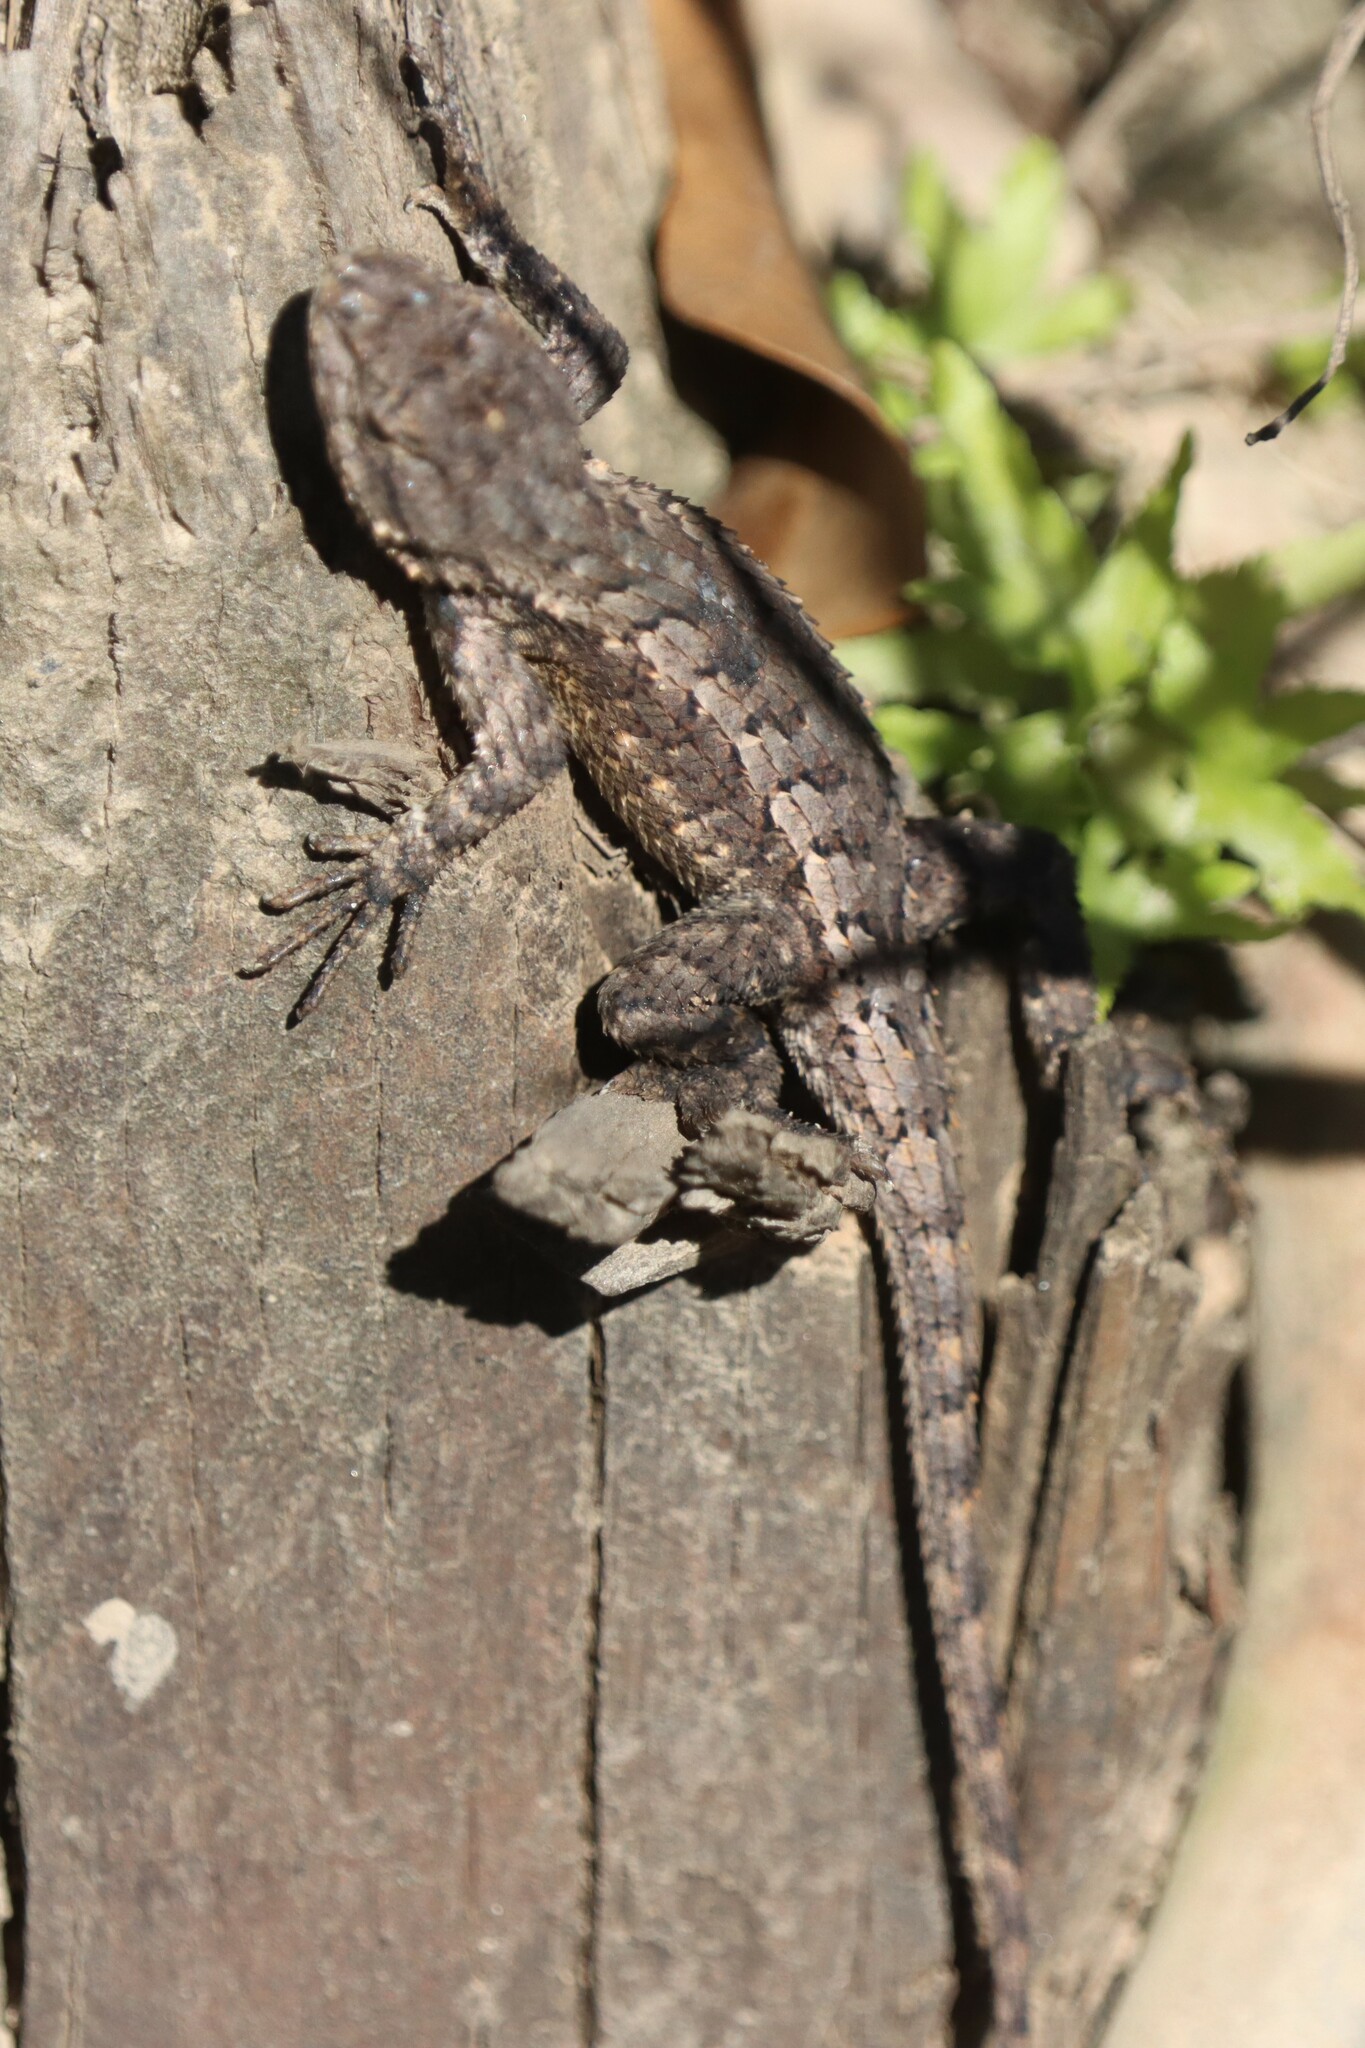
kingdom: Animalia
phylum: Chordata
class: Squamata
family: Phrynosomatidae
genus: Sceloporus
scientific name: Sceloporus consobrinus
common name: Southern prairie lizard
